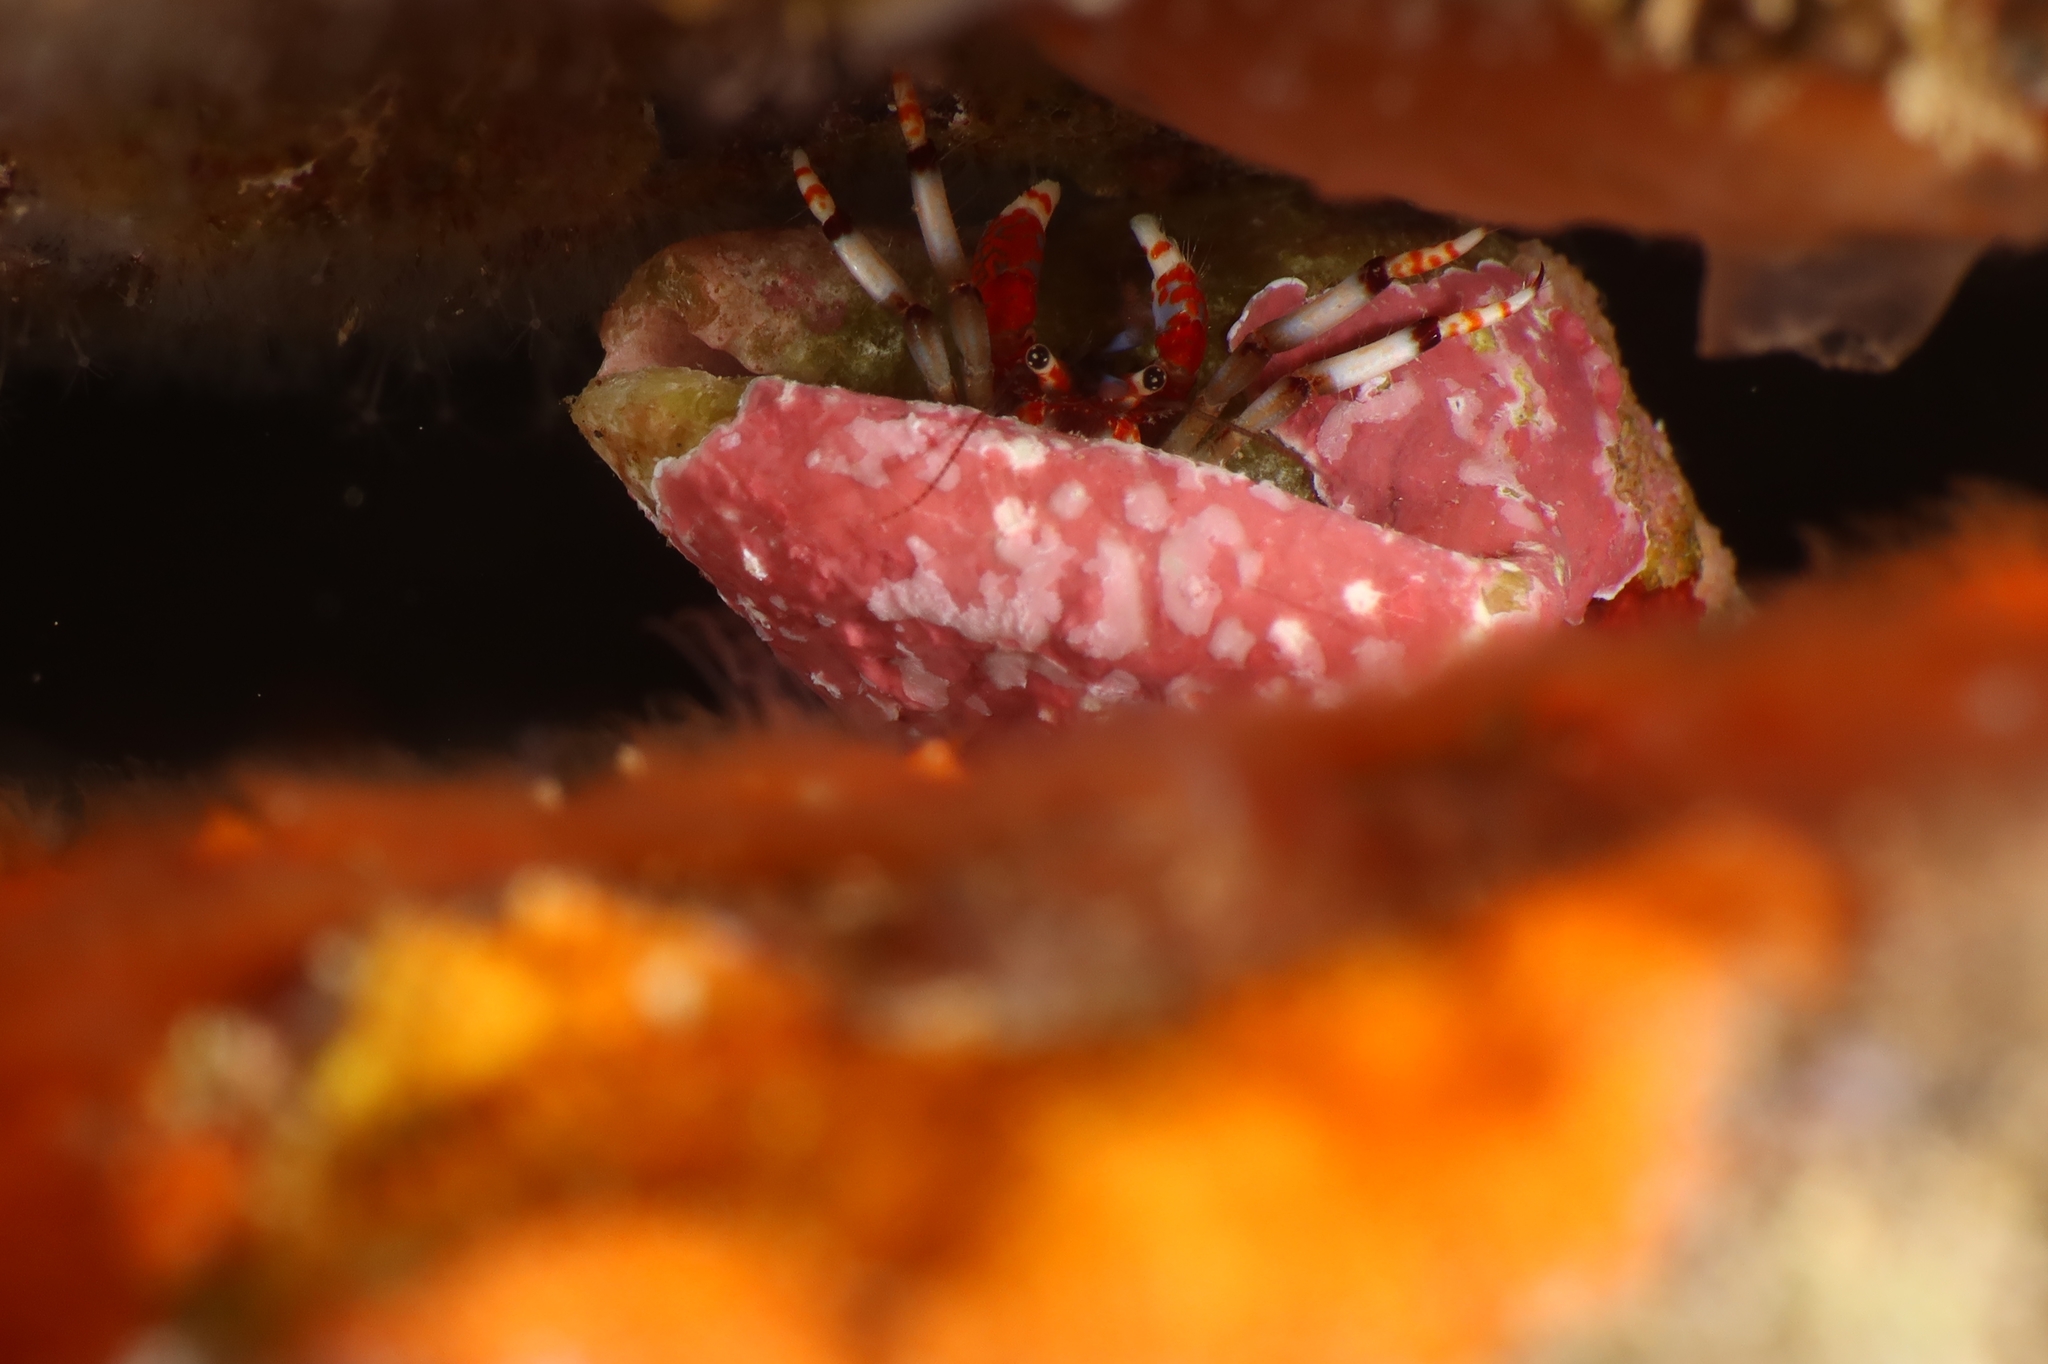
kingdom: Animalia
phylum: Arthropoda
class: Malacostraca
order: Decapoda
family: Diogenidae
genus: Calcinus
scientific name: Calcinus tubularis
